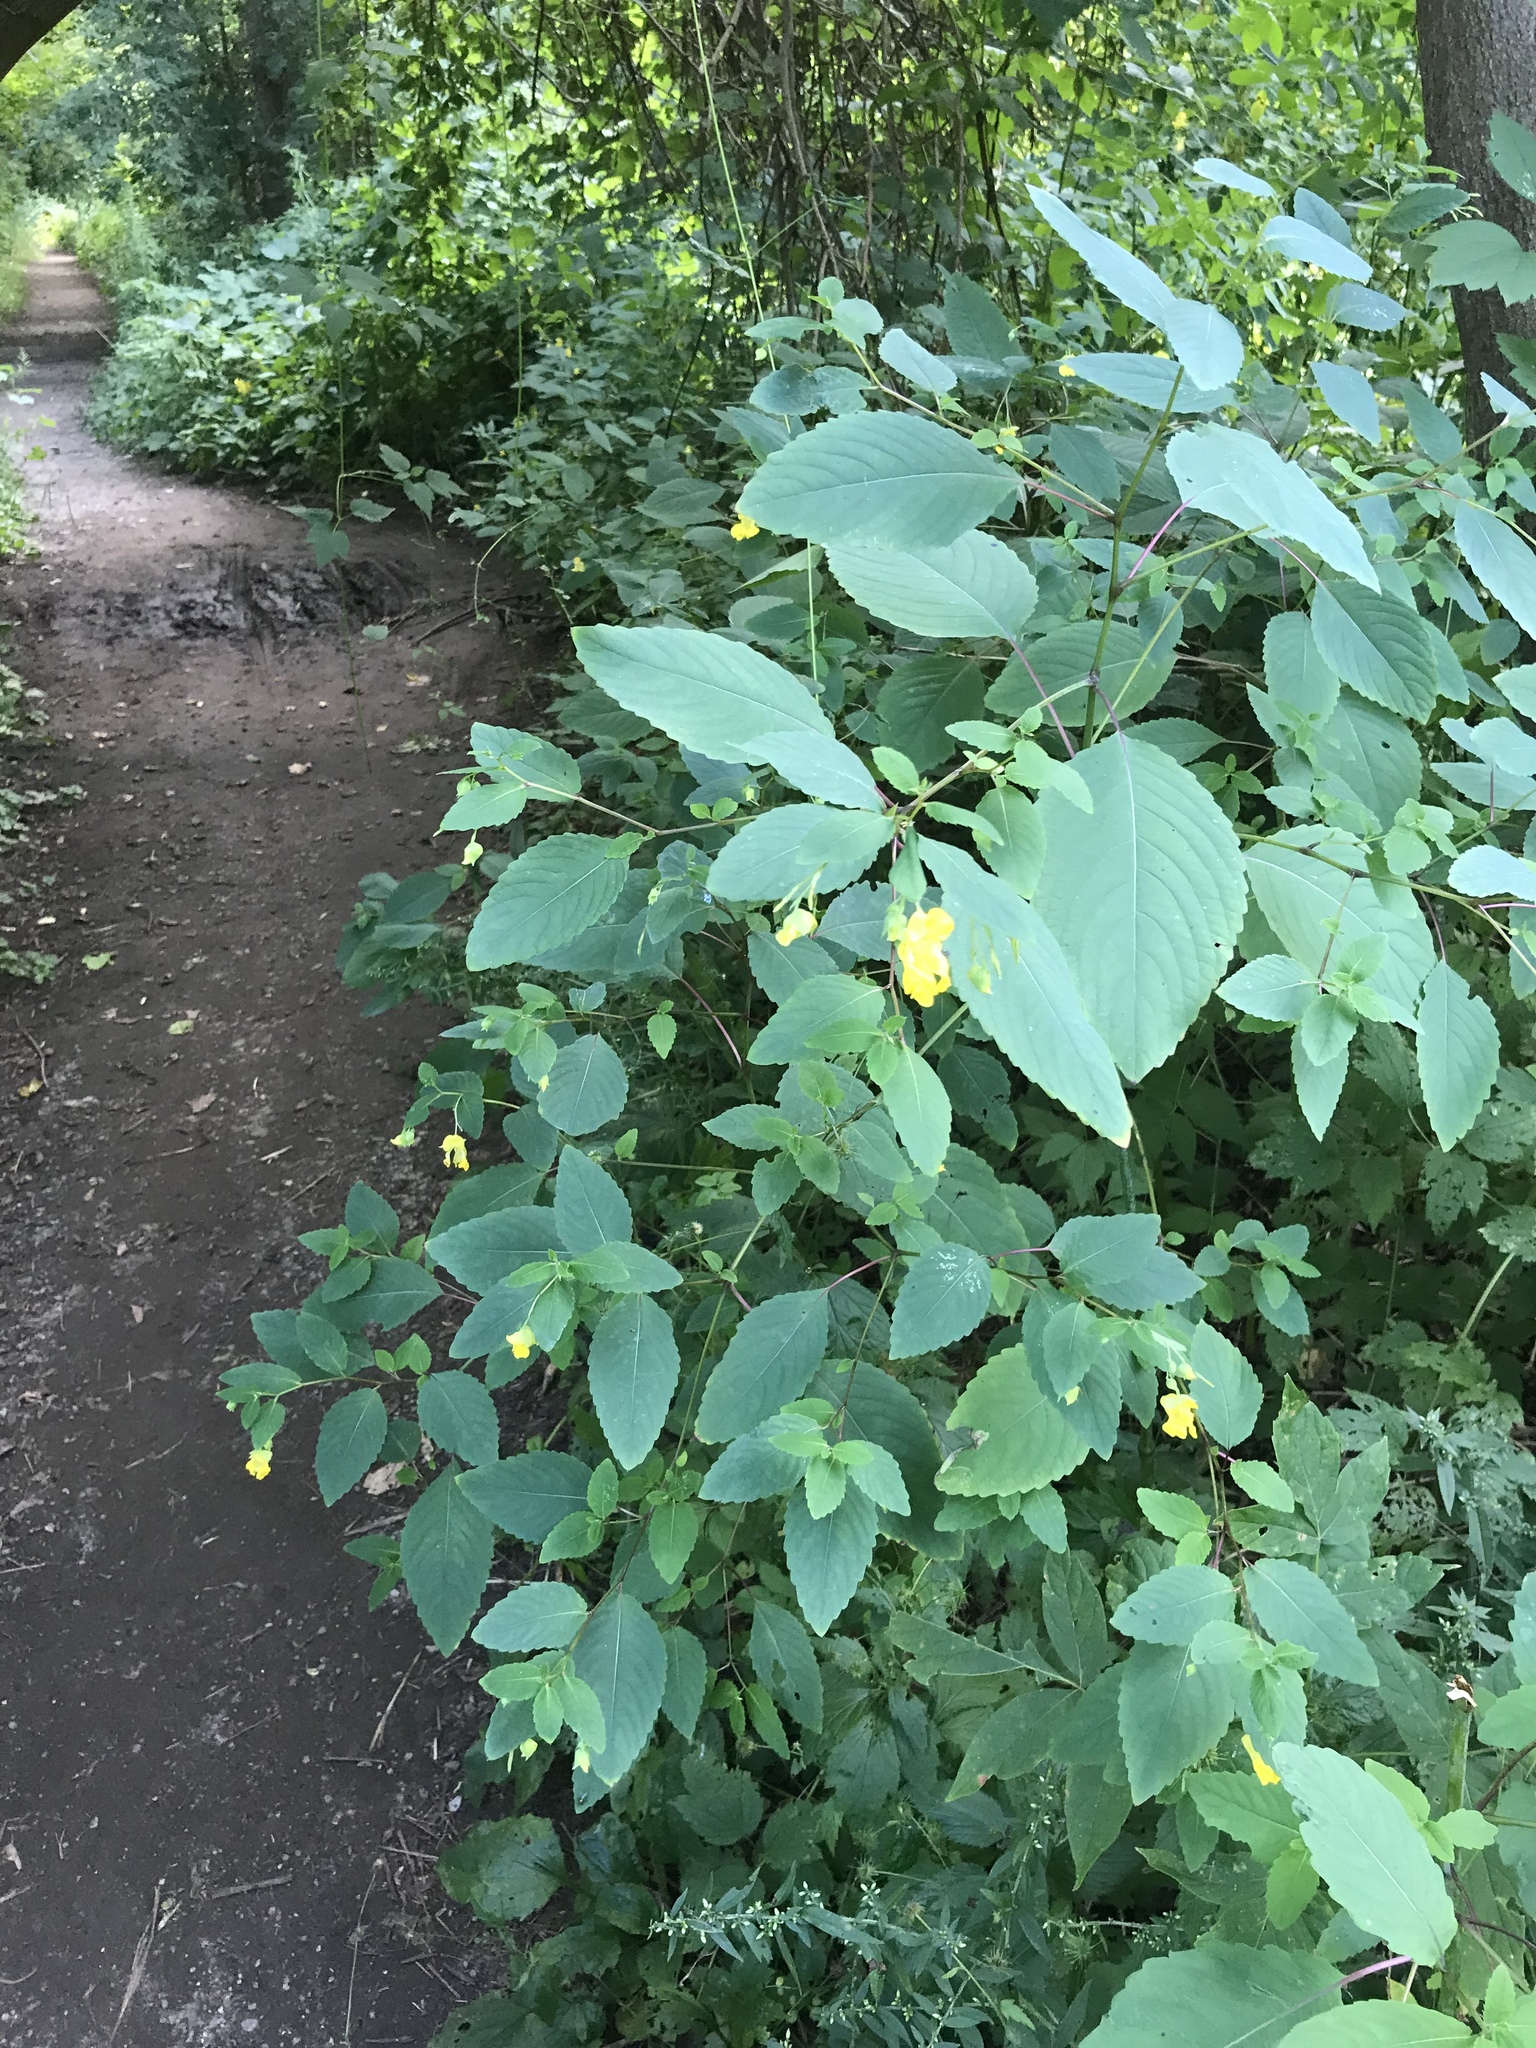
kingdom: Plantae
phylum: Tracheophyta
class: Magnoliopsida
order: Ericales
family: Balsaminaceae
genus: Impatiens
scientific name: Impatiens pallida
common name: Pale snapweed
